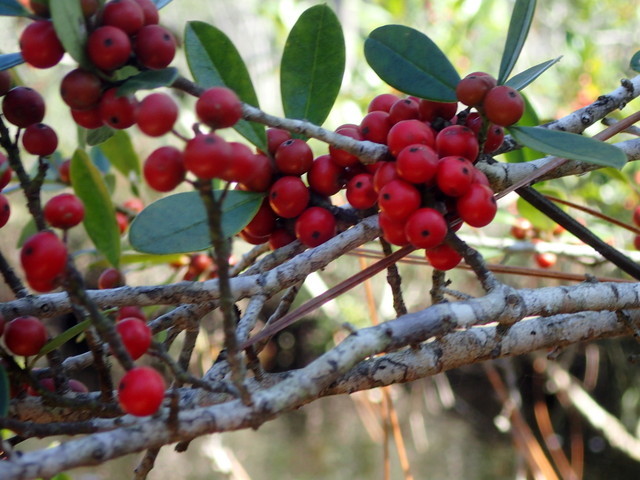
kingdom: Plantae
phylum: Tracheophyta
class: Magnoliopsida
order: Aquifoliales
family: Aquifoliaceae
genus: Ilex
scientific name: Ilex cassine
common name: Dahoon
